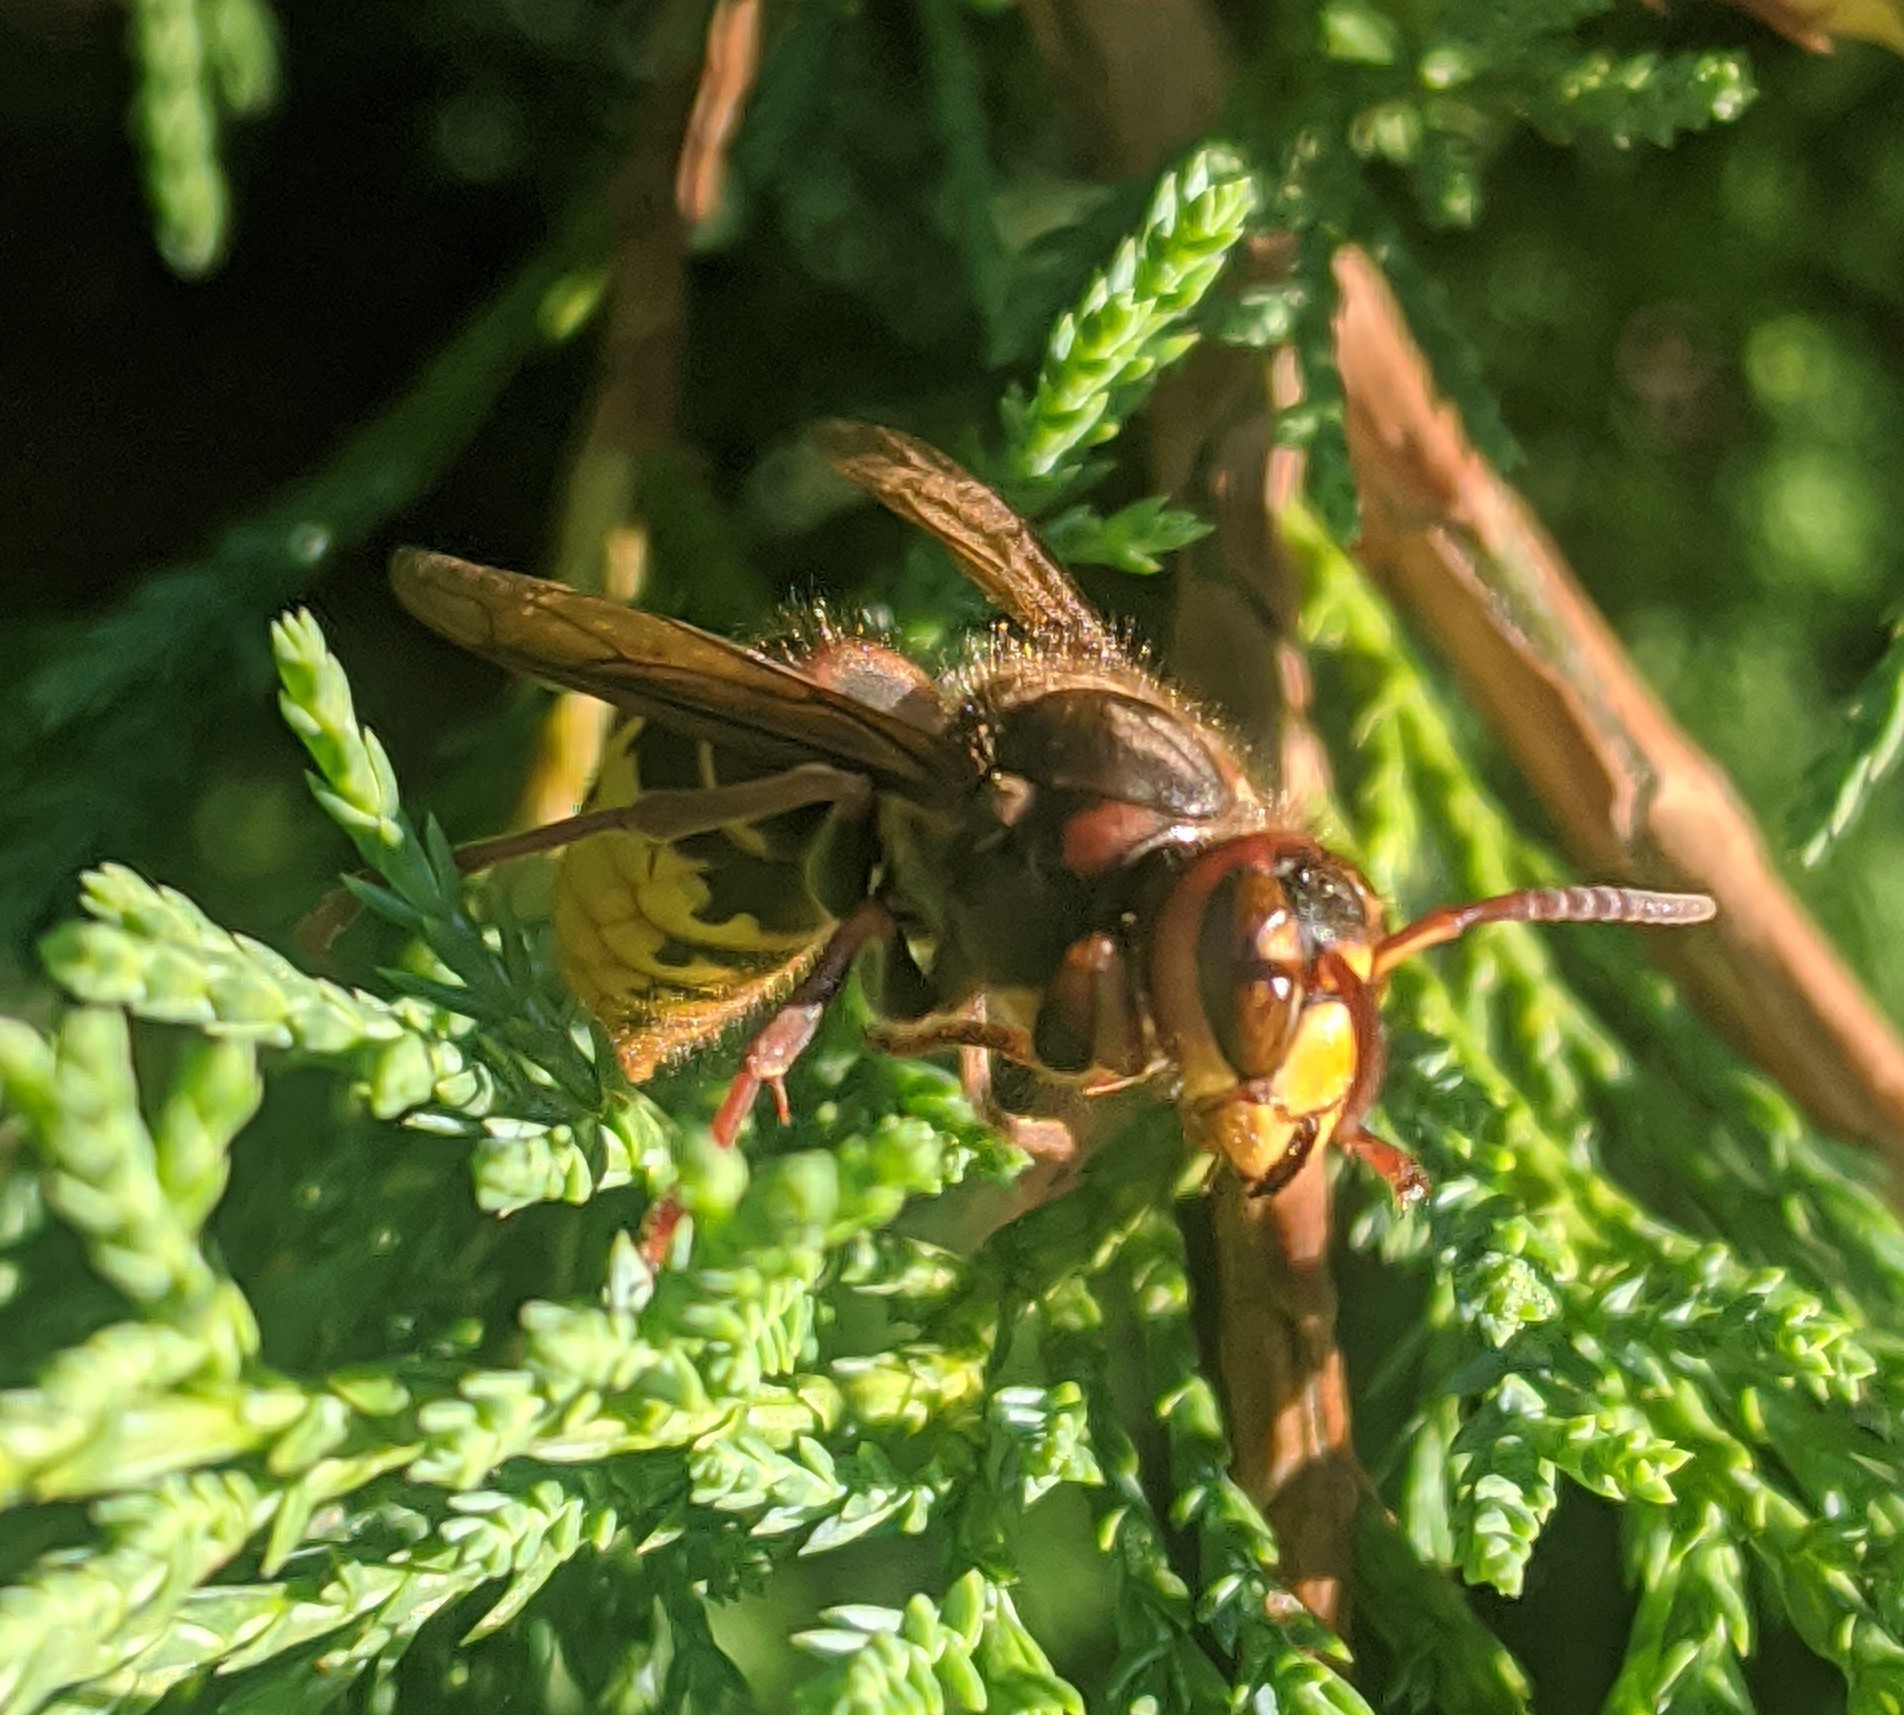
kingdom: Animalia
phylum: Arthropoda
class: Insecta
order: Hymenoptera
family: Vespidae
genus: Vespa
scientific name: Vespa crabro
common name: Hornet
